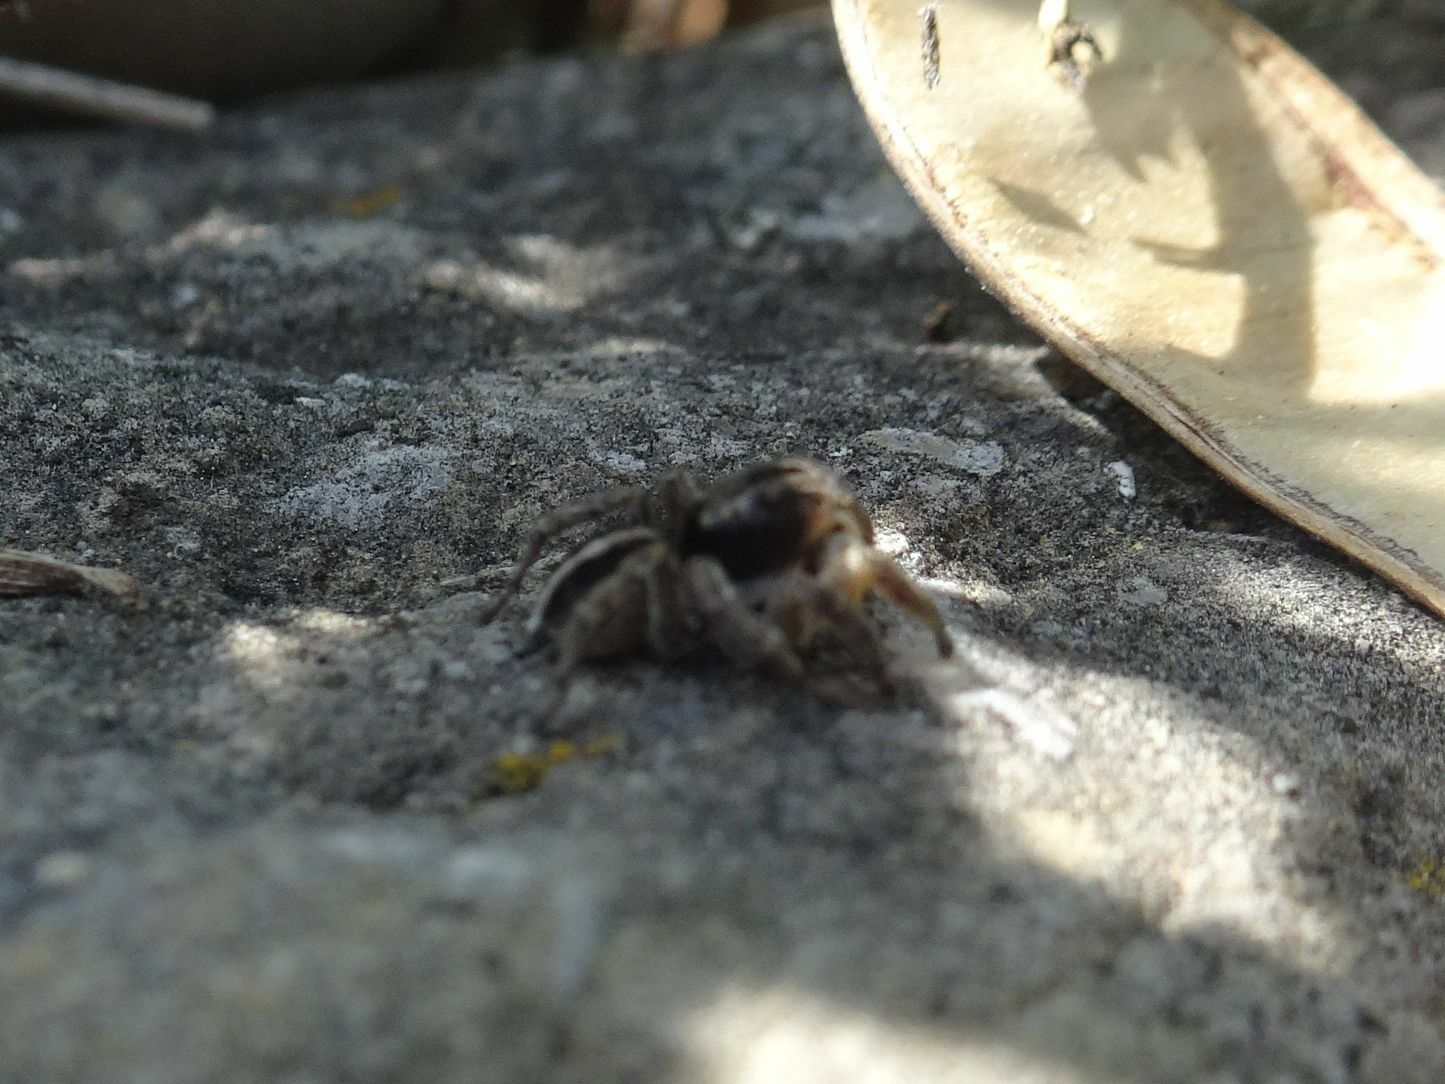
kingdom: Animalia
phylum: Arthropoda
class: Arachnida
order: Araneae
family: Salticidae
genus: Aelurillus
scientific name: Aelurillus v-insignitus
